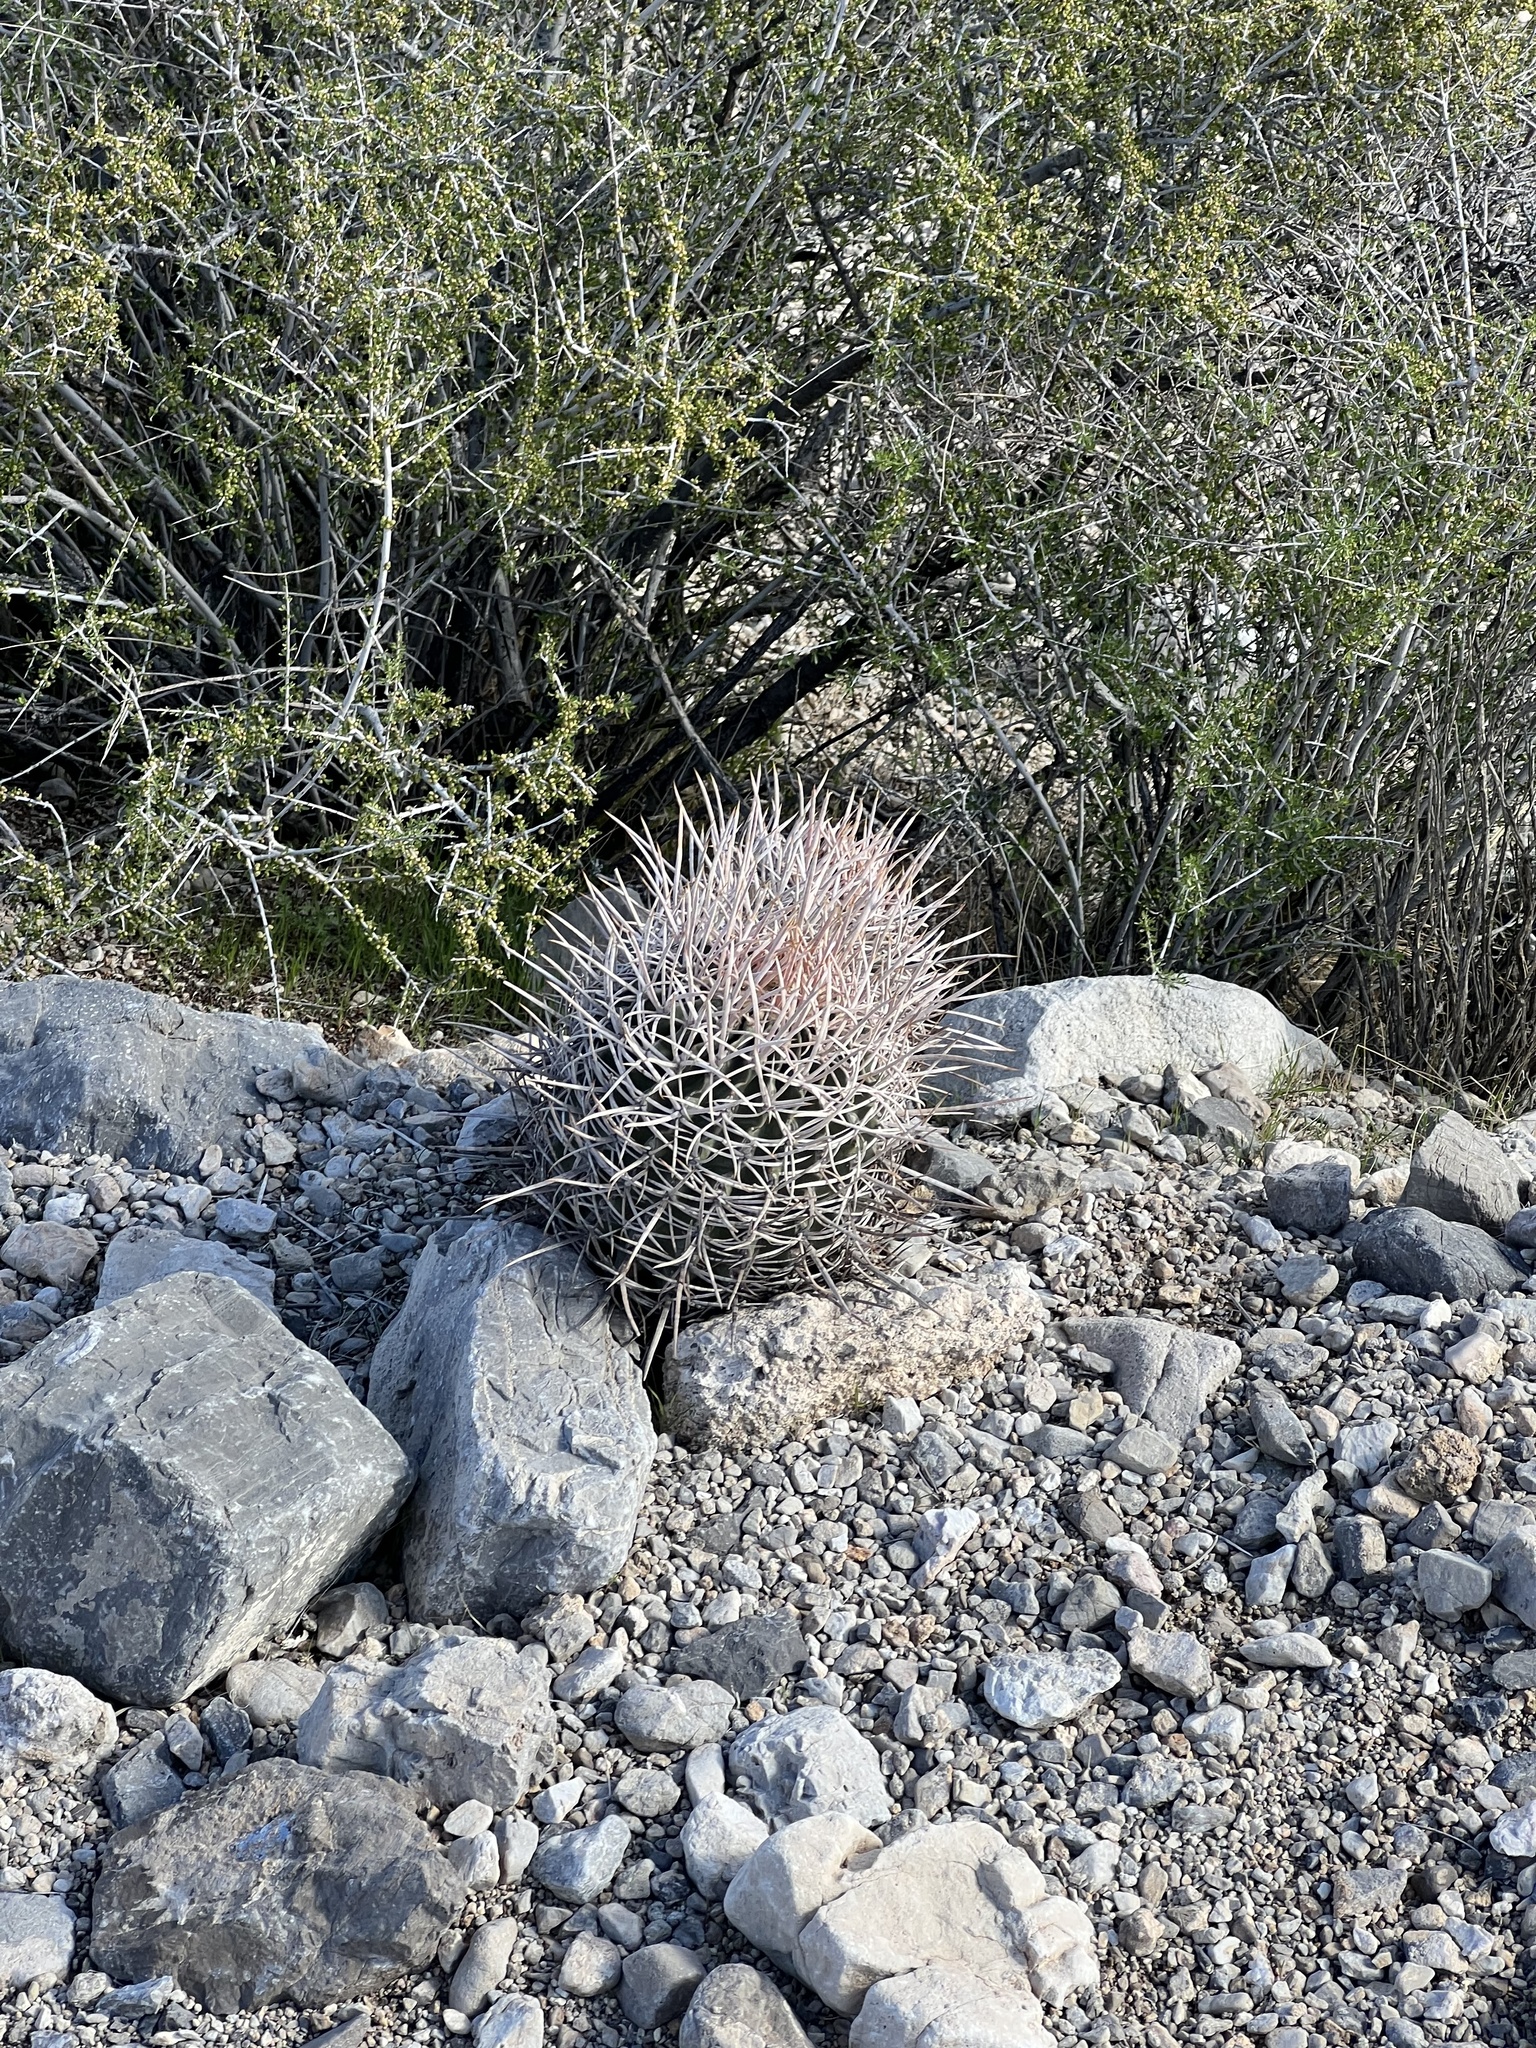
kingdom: Plantae
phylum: Tracheophyta
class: Magnoliopsida
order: Caryophyllales
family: Cactaceae
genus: Echinocactus
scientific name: Echinocactus polycephalus
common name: Cottontop cactus
